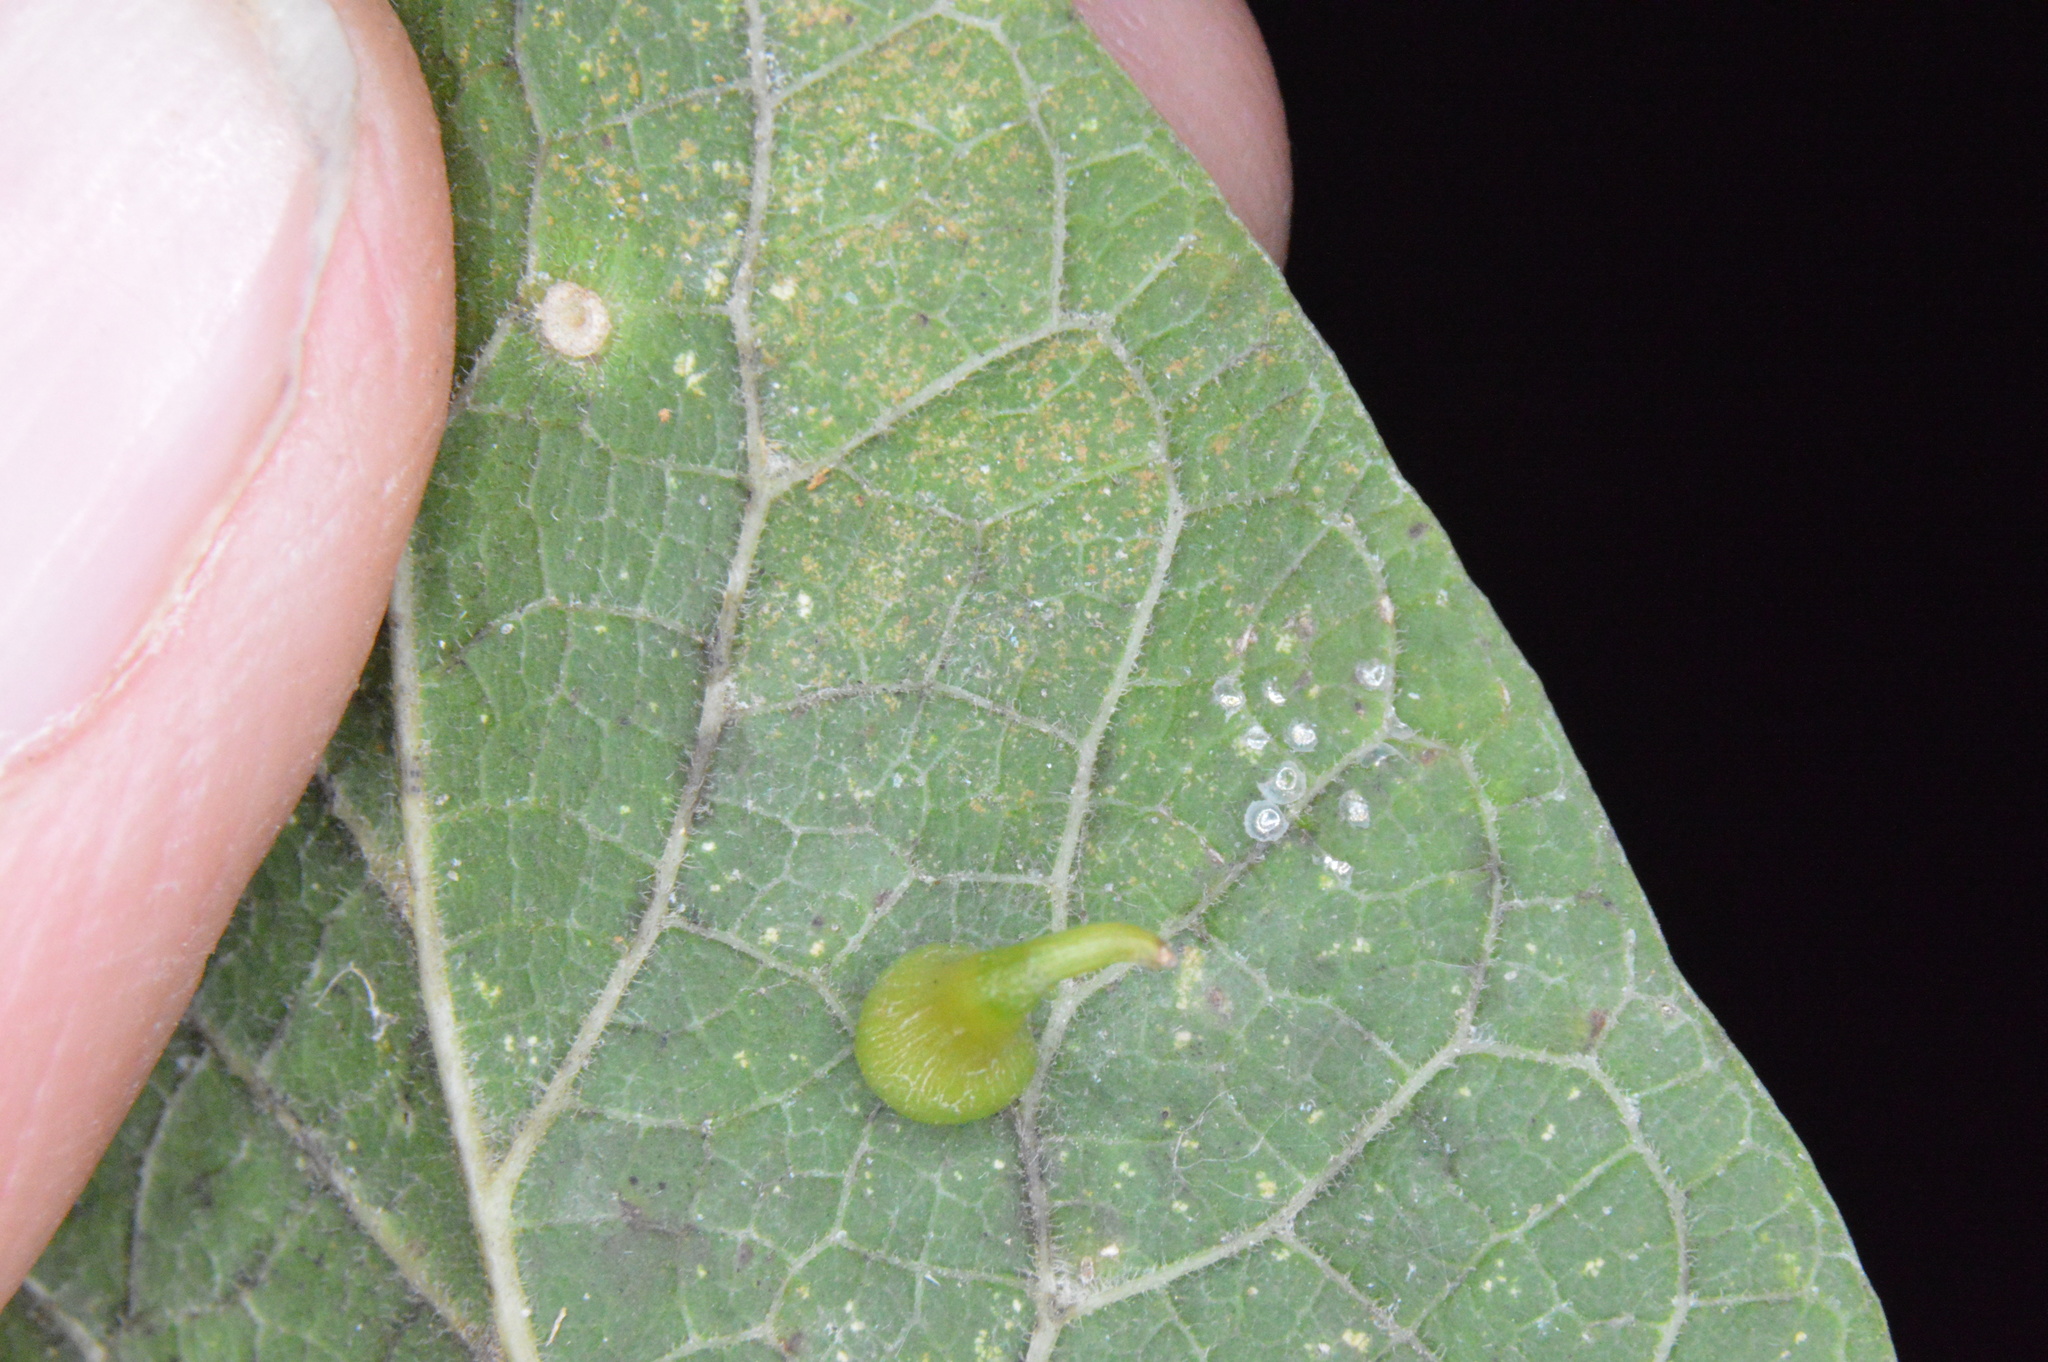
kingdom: Animalia
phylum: Arthropoda
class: Insecta
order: Diptera
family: Cecidomyiidae
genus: Celticecis
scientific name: Celticecis subulata
